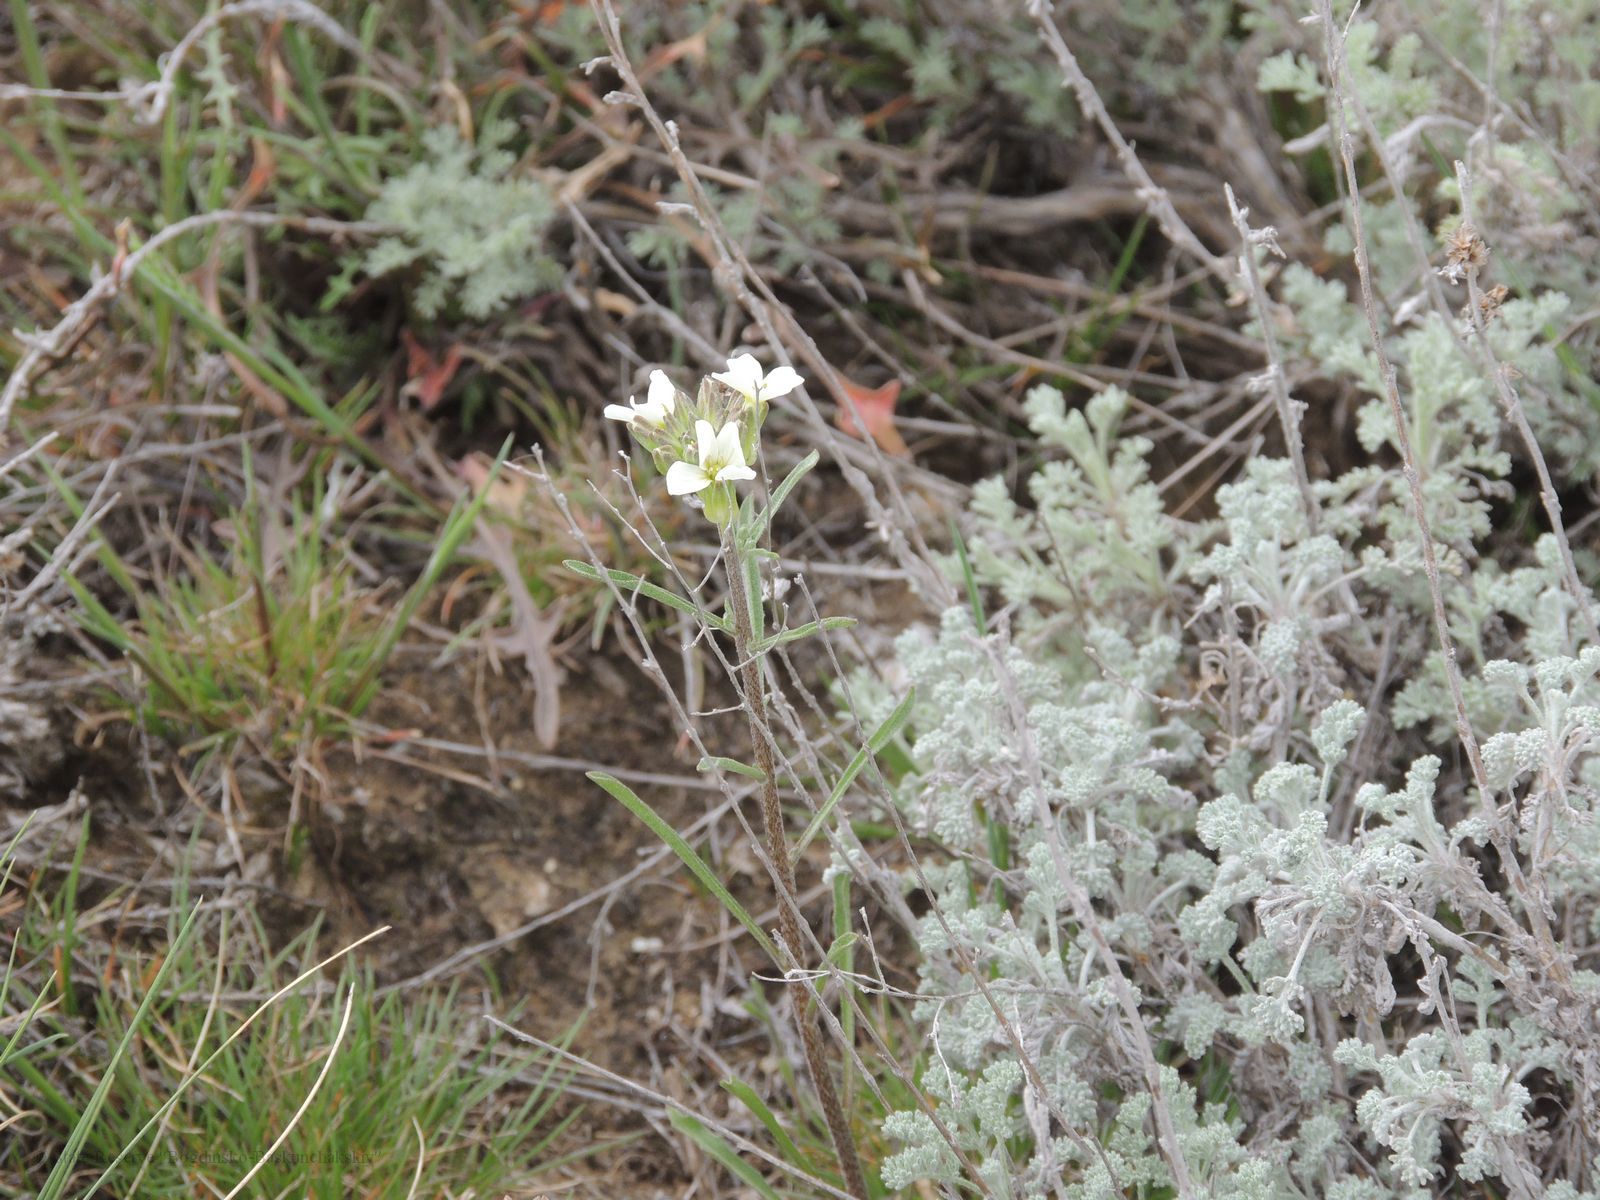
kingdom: Plantae
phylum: Tracheophyta
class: Magnoliopsida
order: Brassicales
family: Brassicaceae
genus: Erysimum
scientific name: Erysimum leucanthemum
